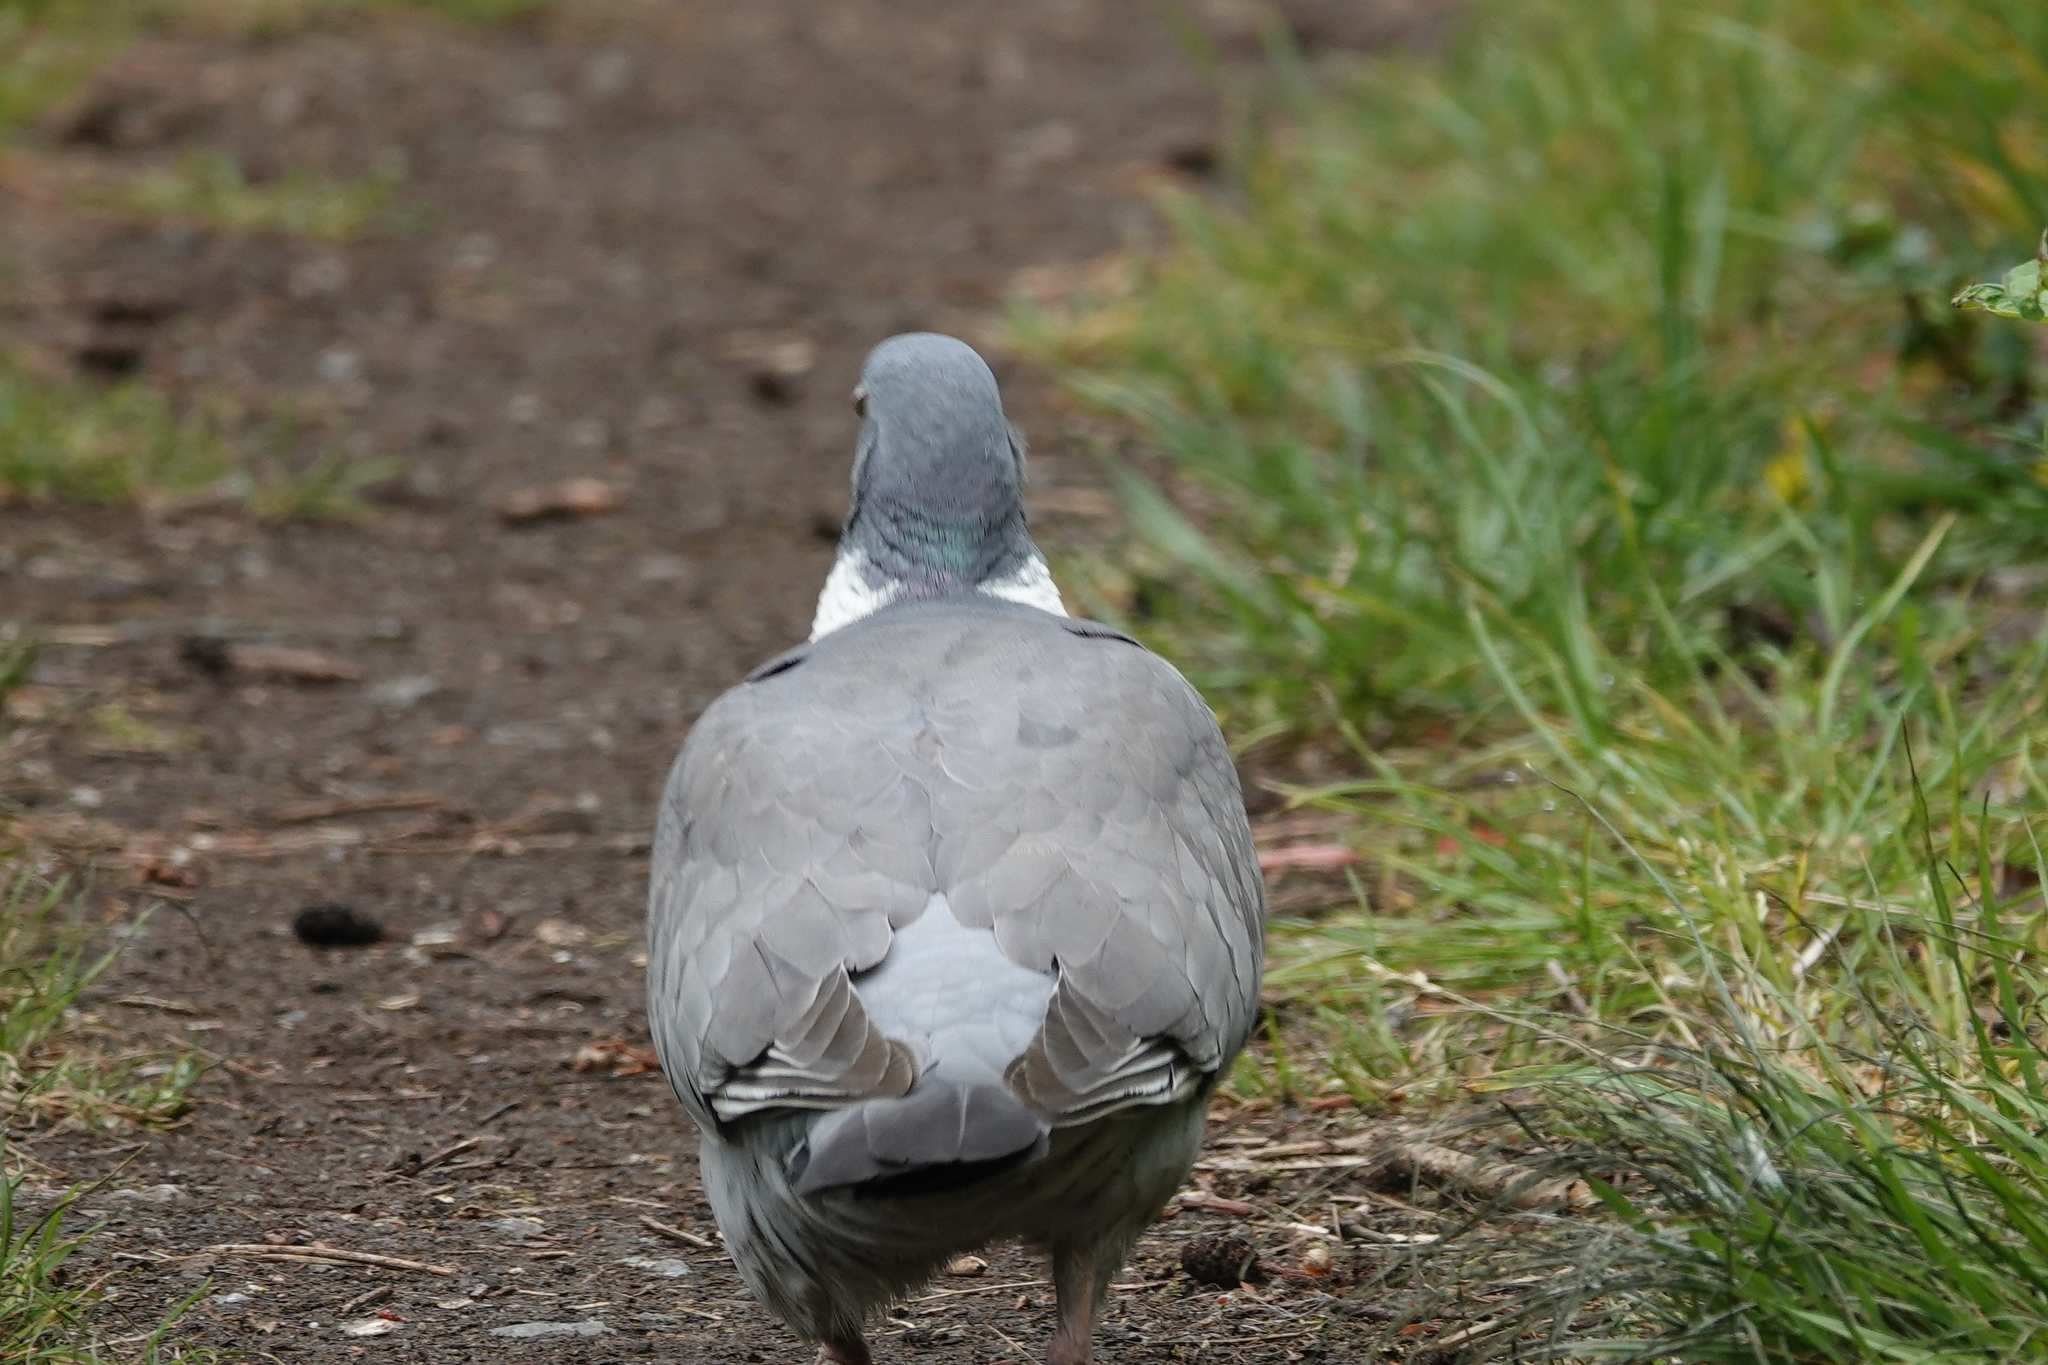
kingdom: Animalia
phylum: Chordata
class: Aves
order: Columbiformes
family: Columbidae
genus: Columba
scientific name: Columba palumbus
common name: Common wood pigeon
